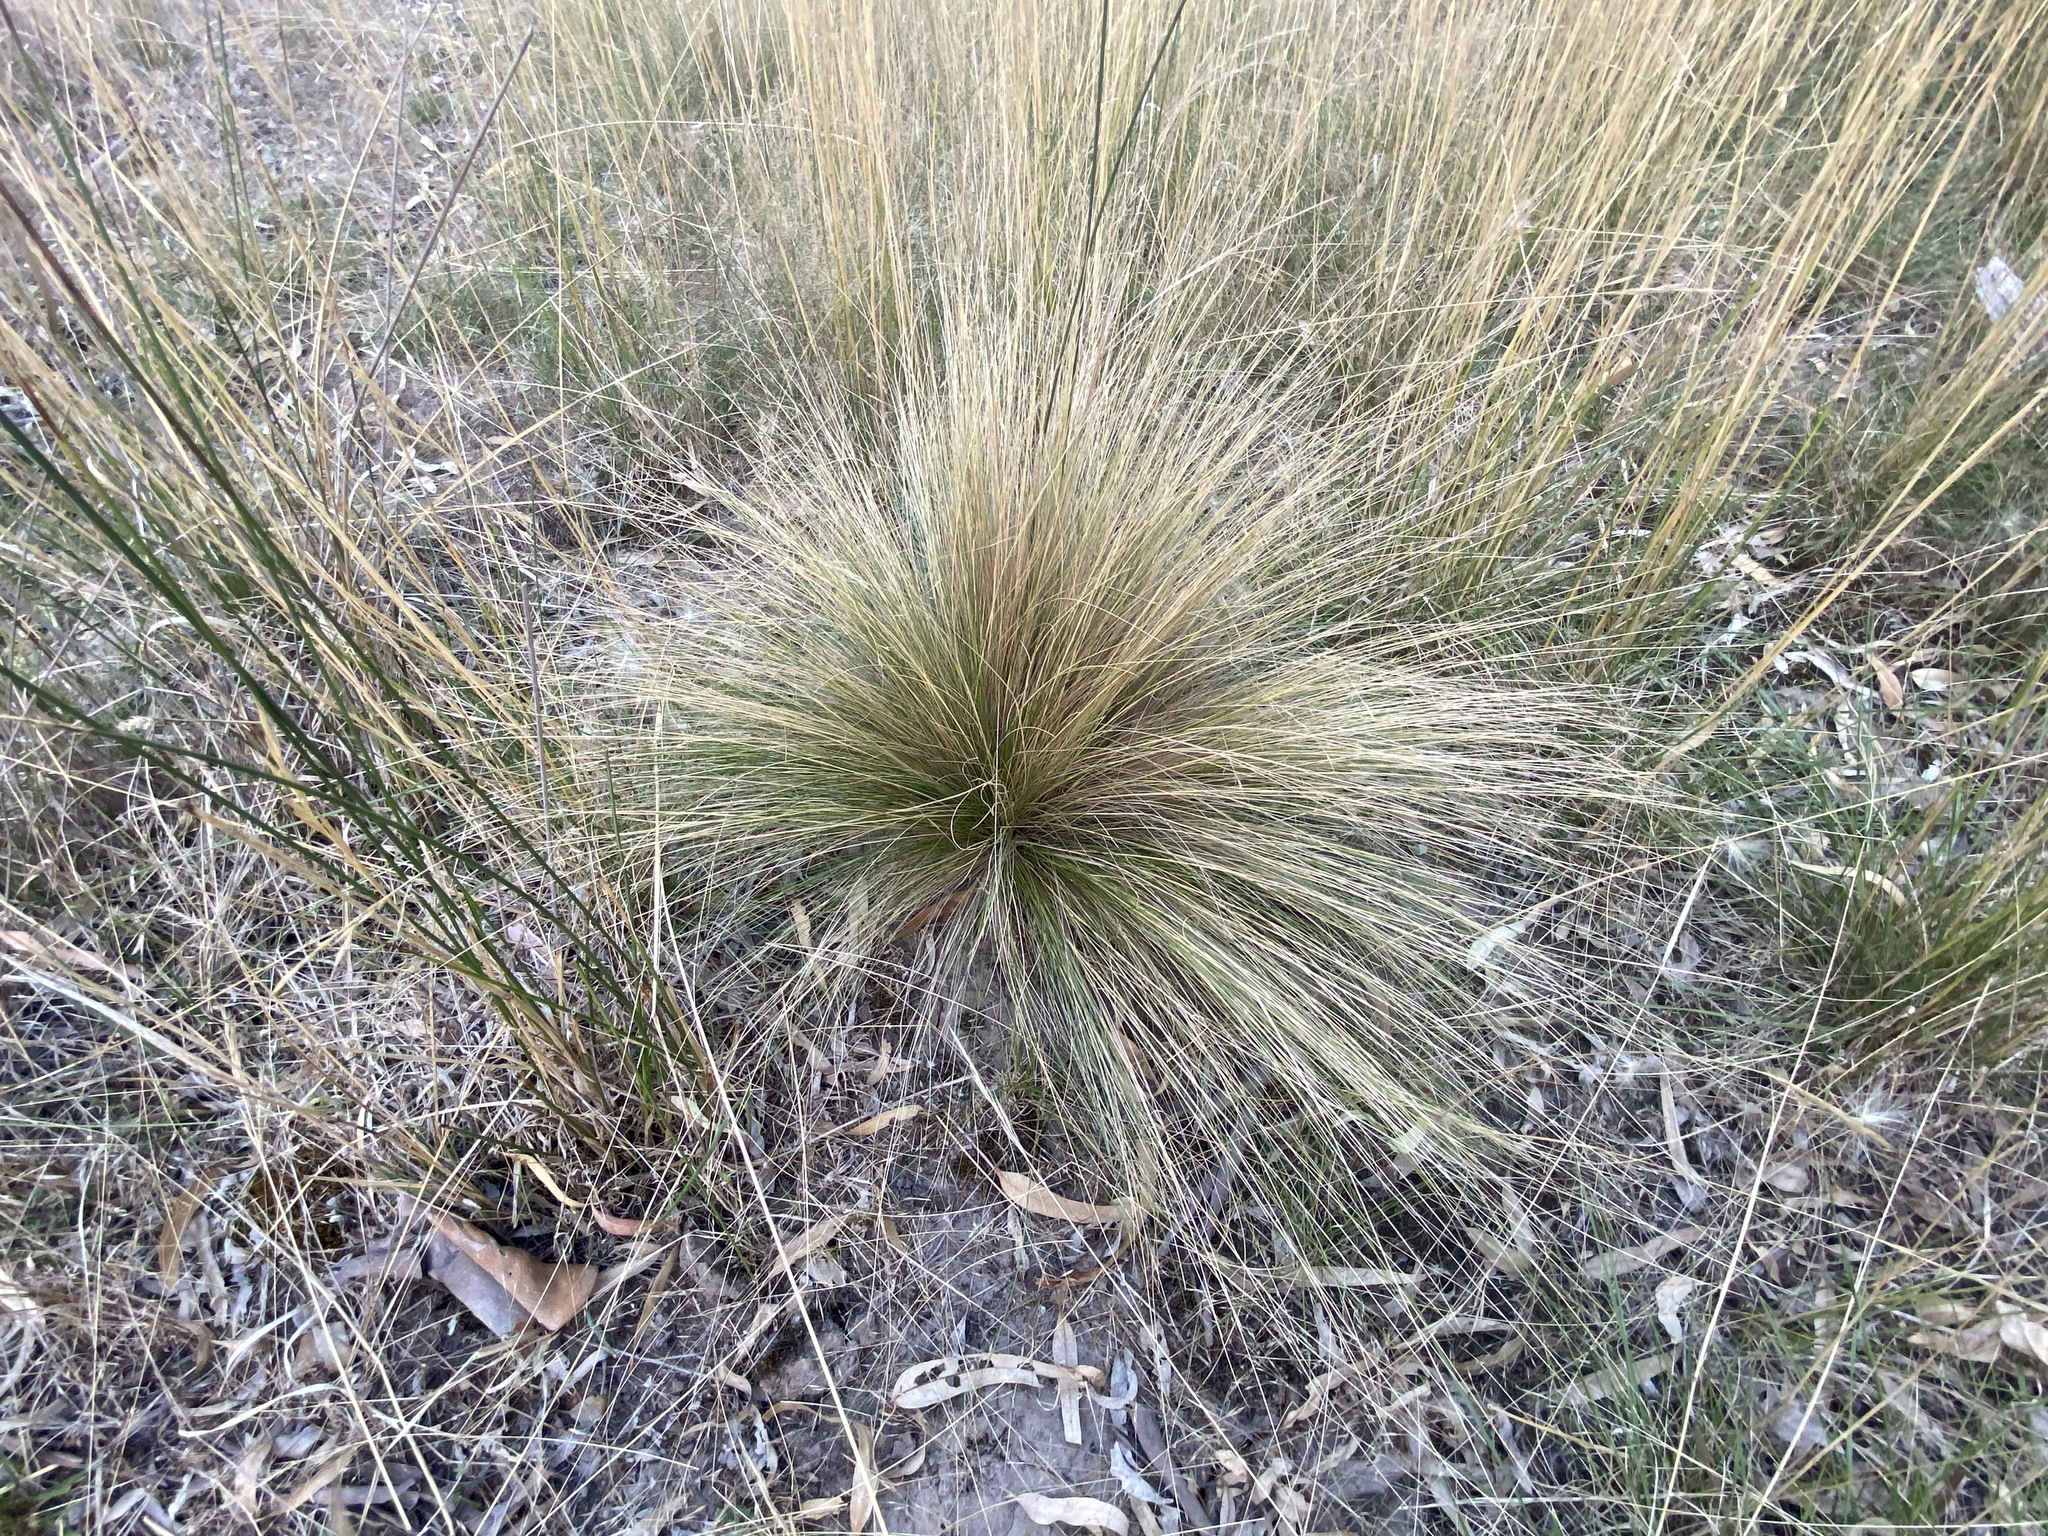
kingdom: Plantae
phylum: Tracheophyta
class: Liliopsida
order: Poales
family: Poaceae
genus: Nassella
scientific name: Nassella trichotoma
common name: Serrated tussock grass
